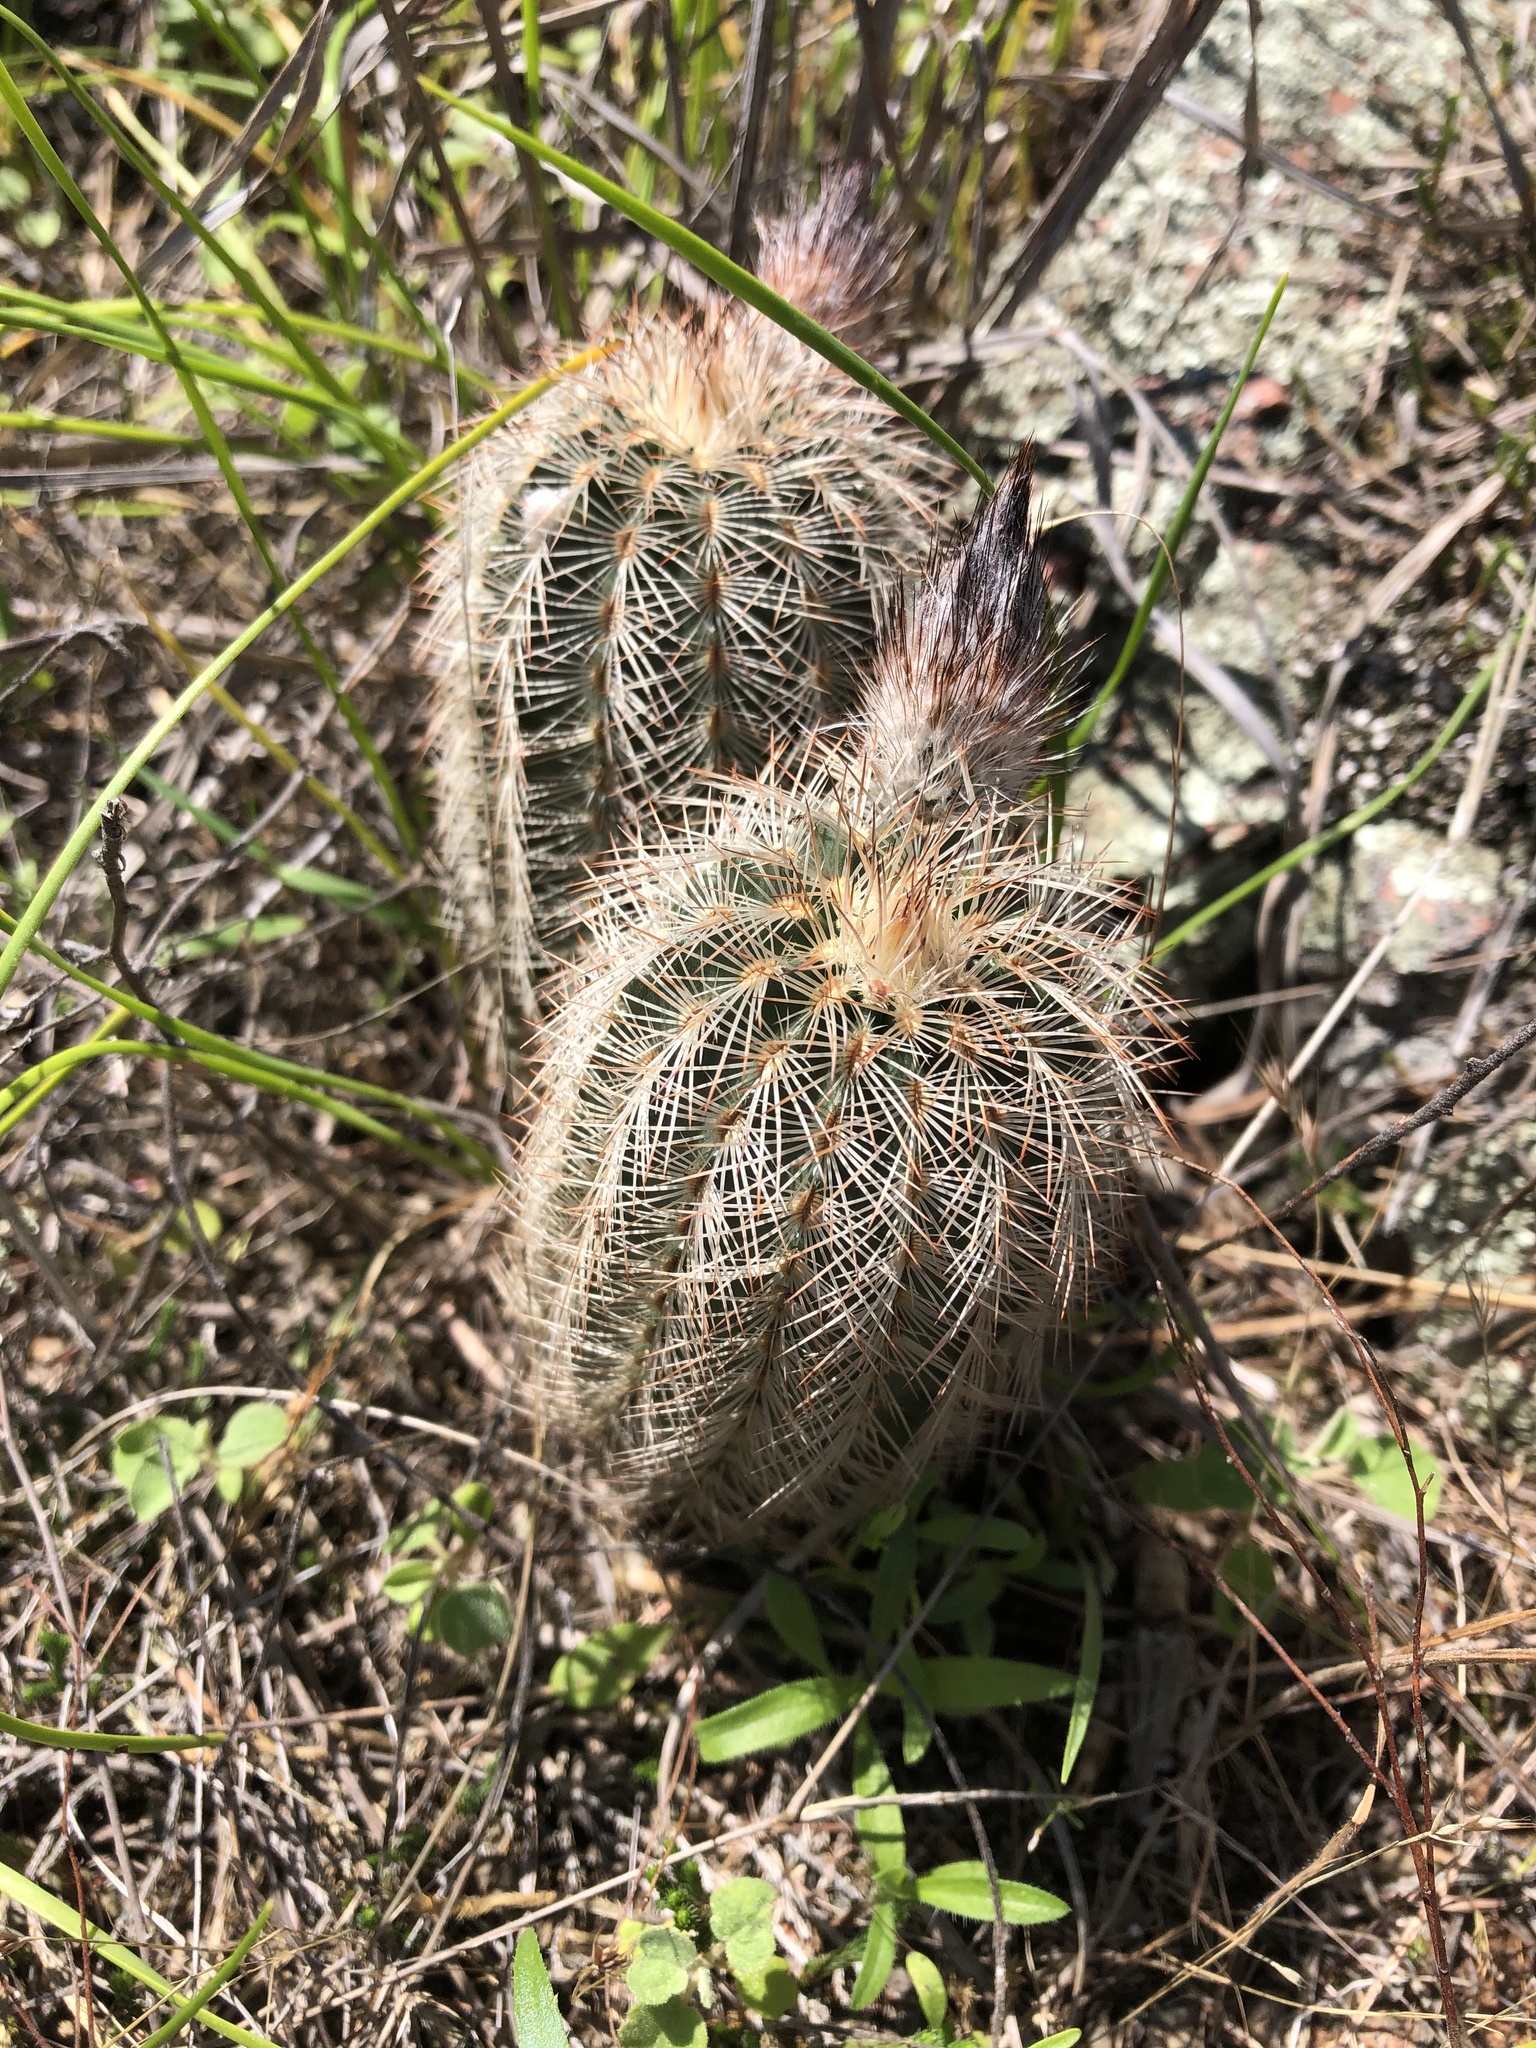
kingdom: Plantae
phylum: Tracheophyta
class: Magnoliopsida
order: Caryophyllales
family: Cactaceae
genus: Echinocereus
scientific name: Echinocereus reichenbachii
